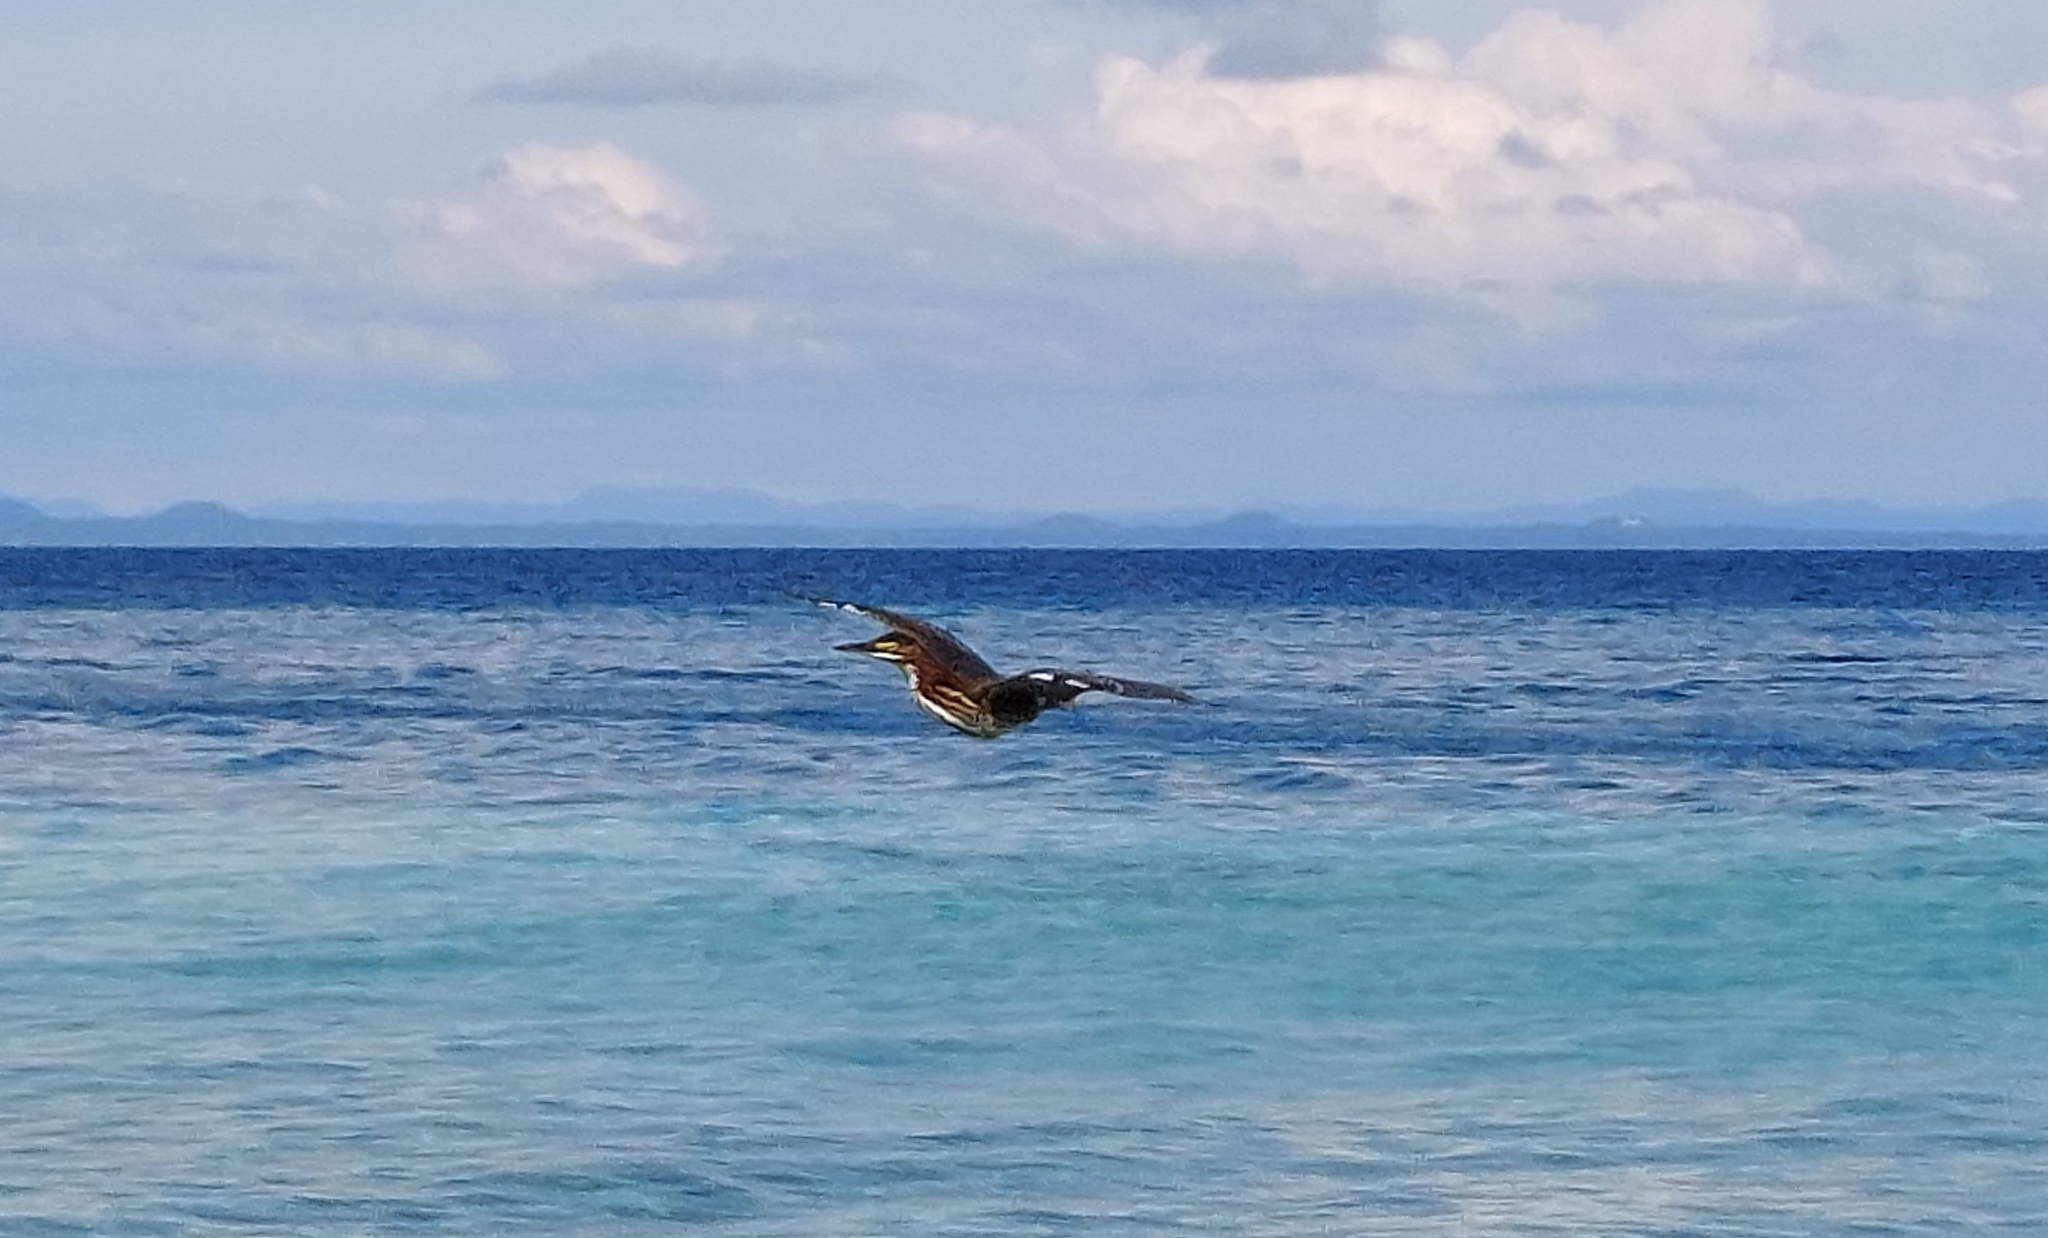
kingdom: Animalia
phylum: Chordata
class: Aves
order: Pelecaniformes
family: Ardeidae
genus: Butorides
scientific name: Butorides virescens
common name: Green heron
